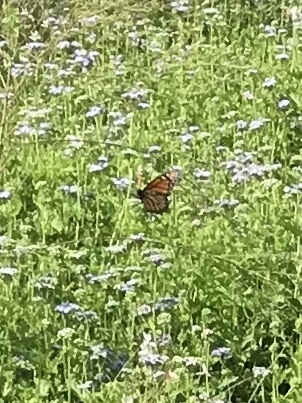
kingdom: Animalia
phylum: Arthropoda
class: Insecta
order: Lepidoptera
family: Nymphalidae
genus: Danaus
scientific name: Danaus plexippus
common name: Monarch
